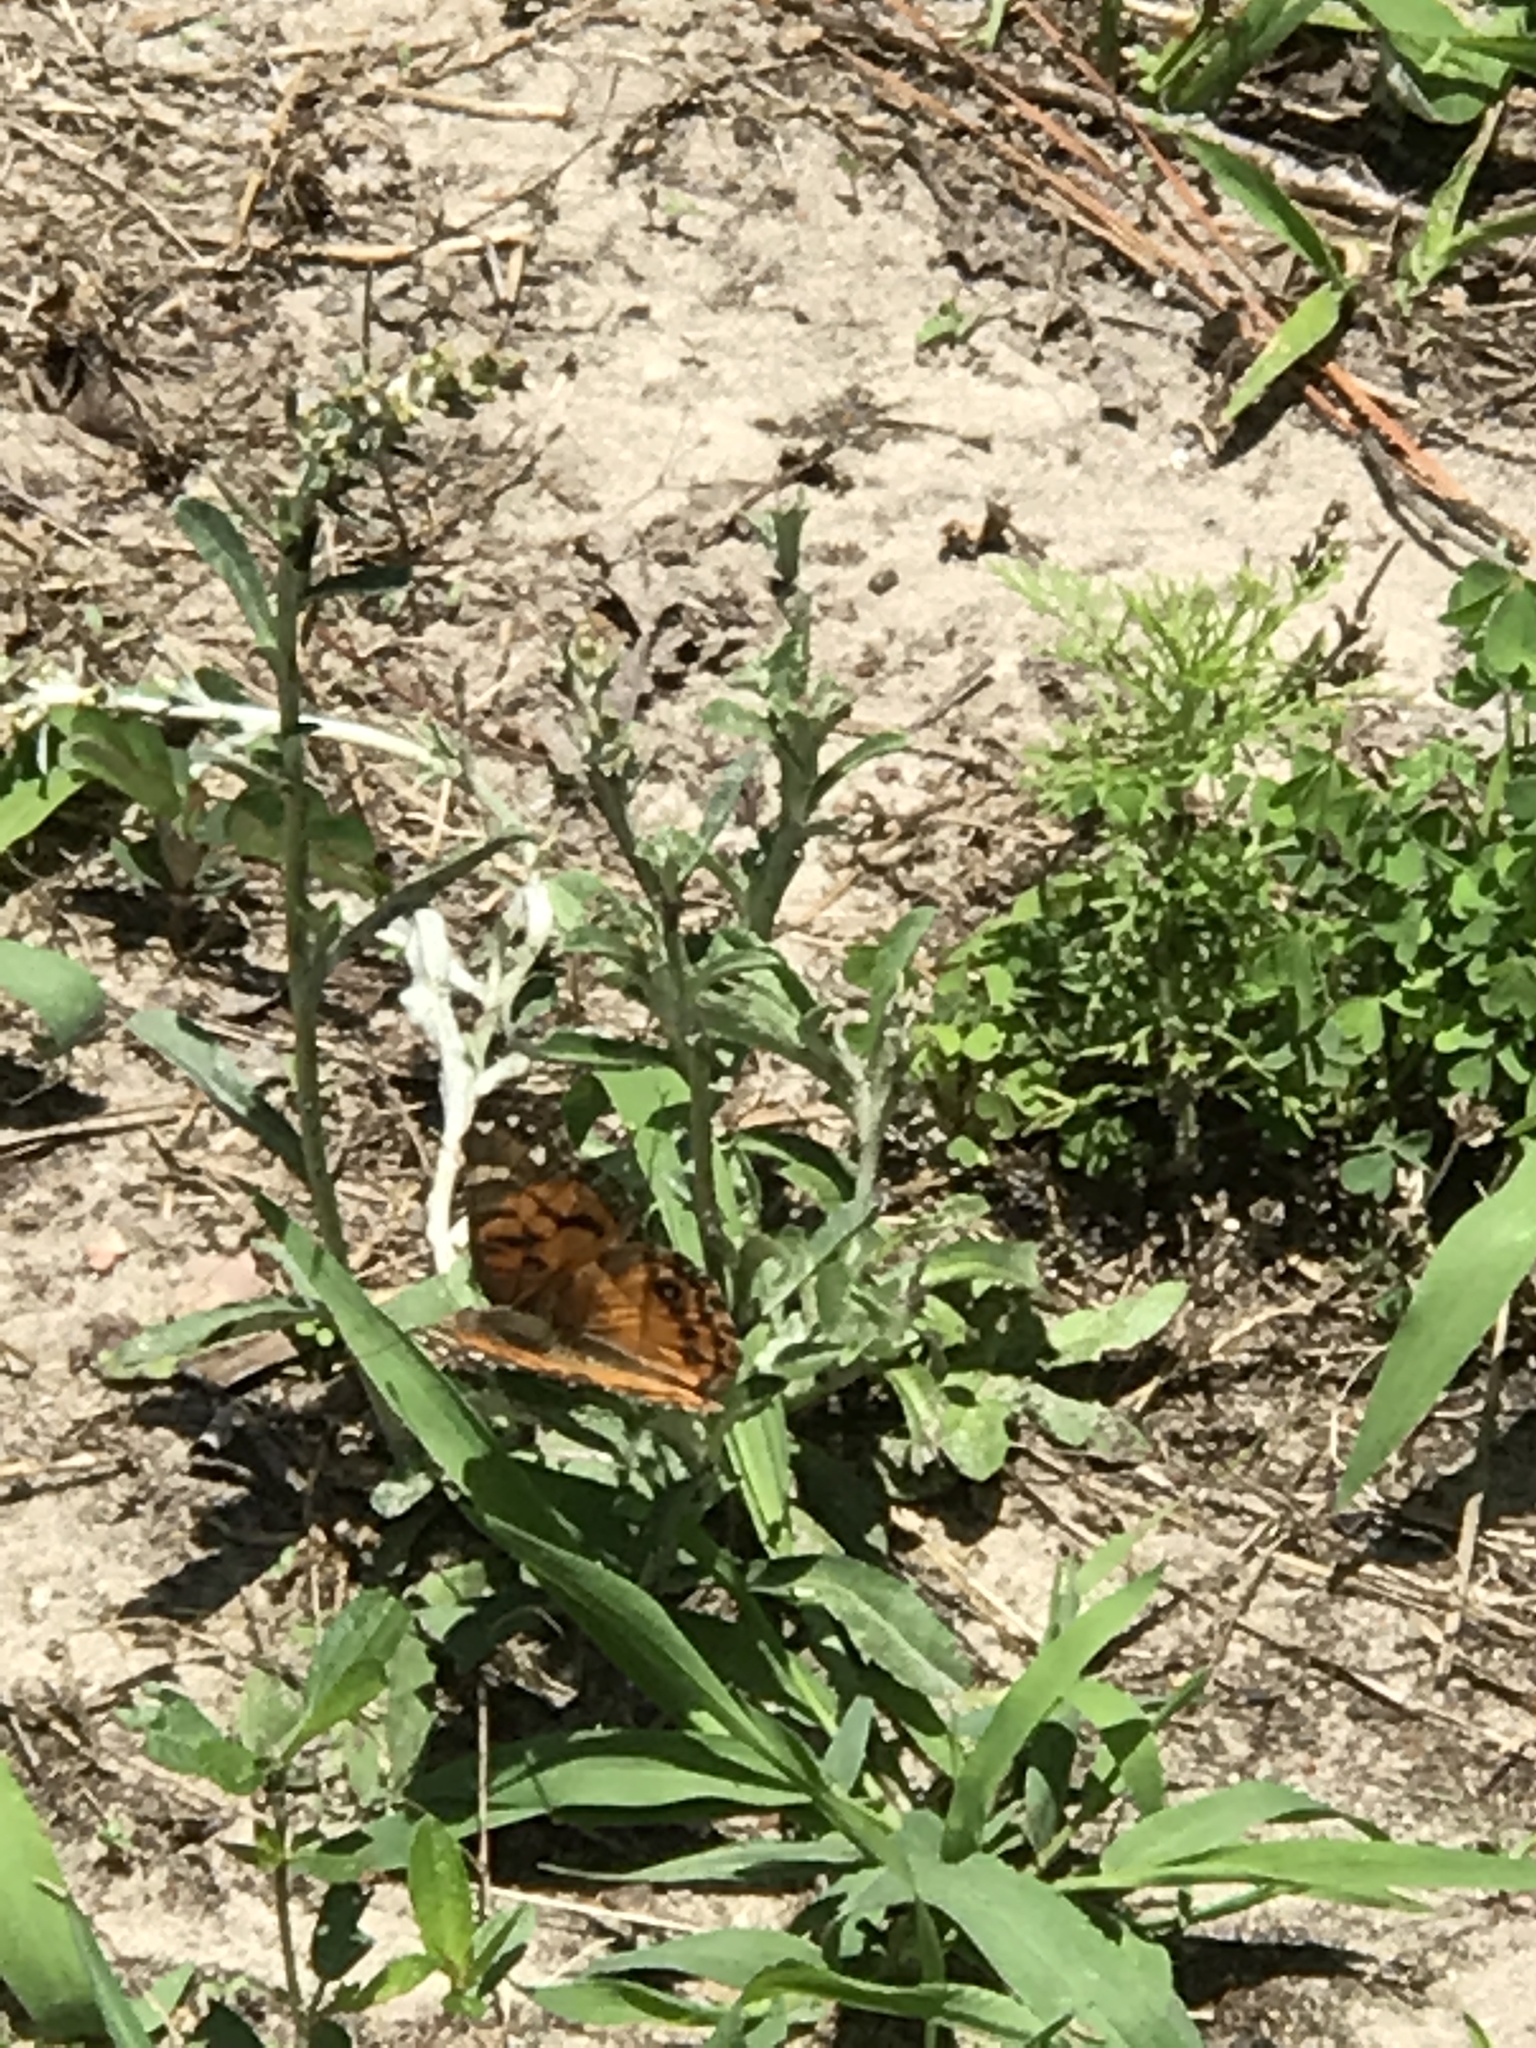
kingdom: Animalia
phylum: Arthropoda
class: Insecta
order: Lepidoptera
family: Nymphalidae
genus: Vanessa
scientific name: Vanessa virginiensis
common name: American lady
